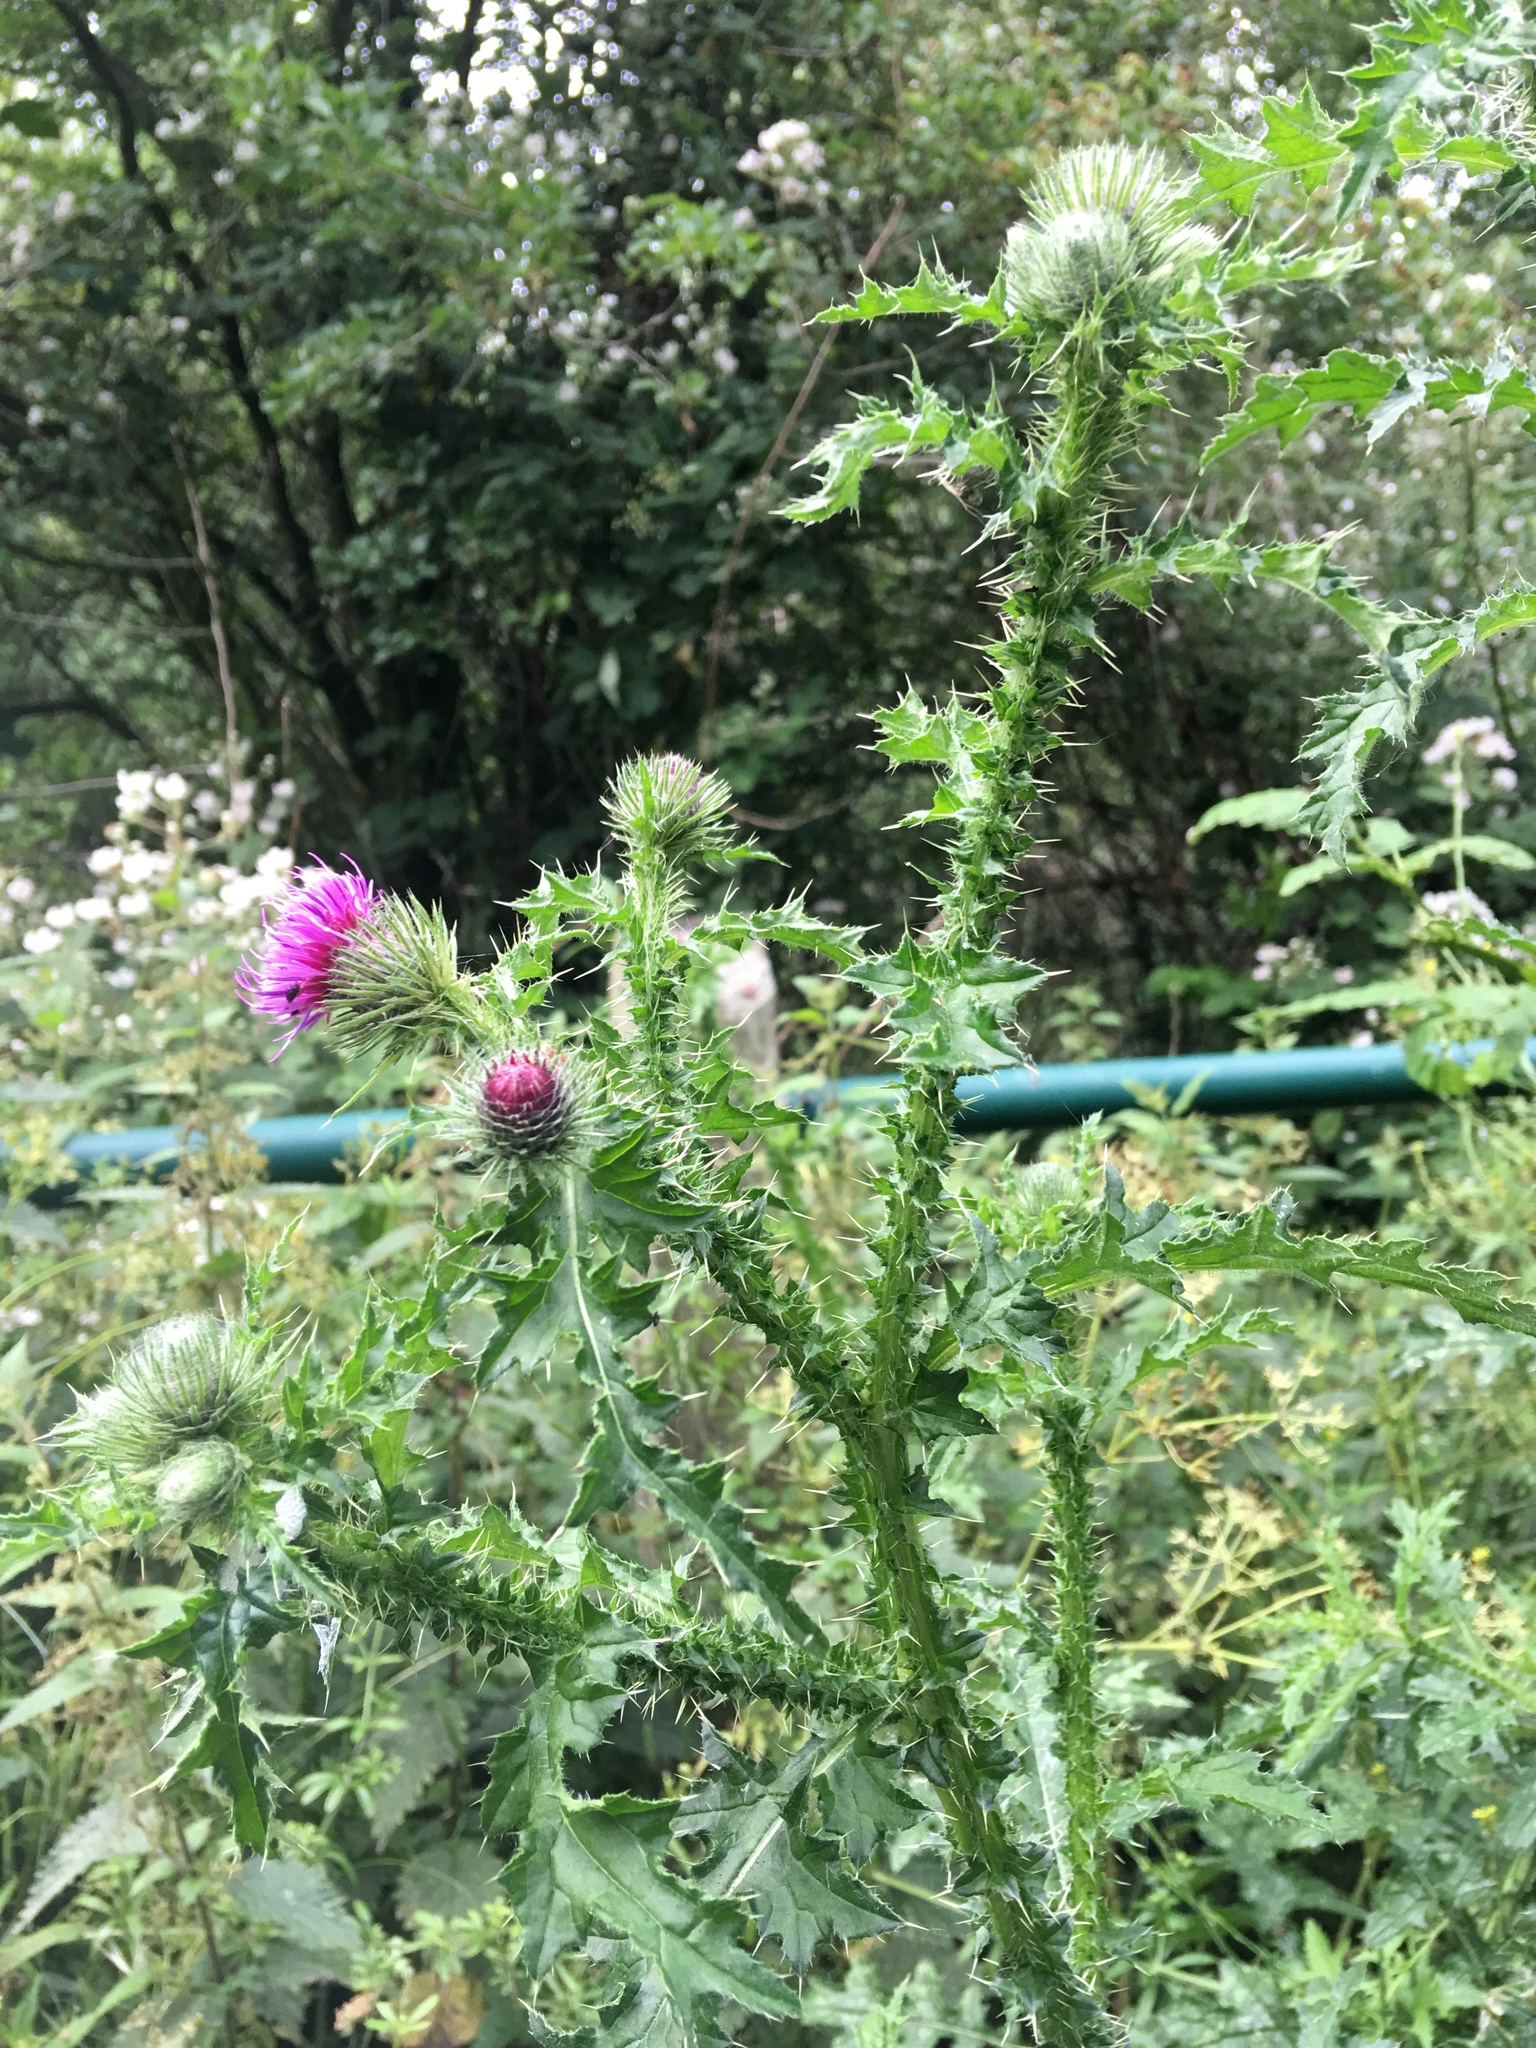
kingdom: Plantae
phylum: Tracheophyta
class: Magnoliopsida
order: Asterales
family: Asteraceae
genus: Carduus
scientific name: Carduus crispus
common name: Welted thistle
